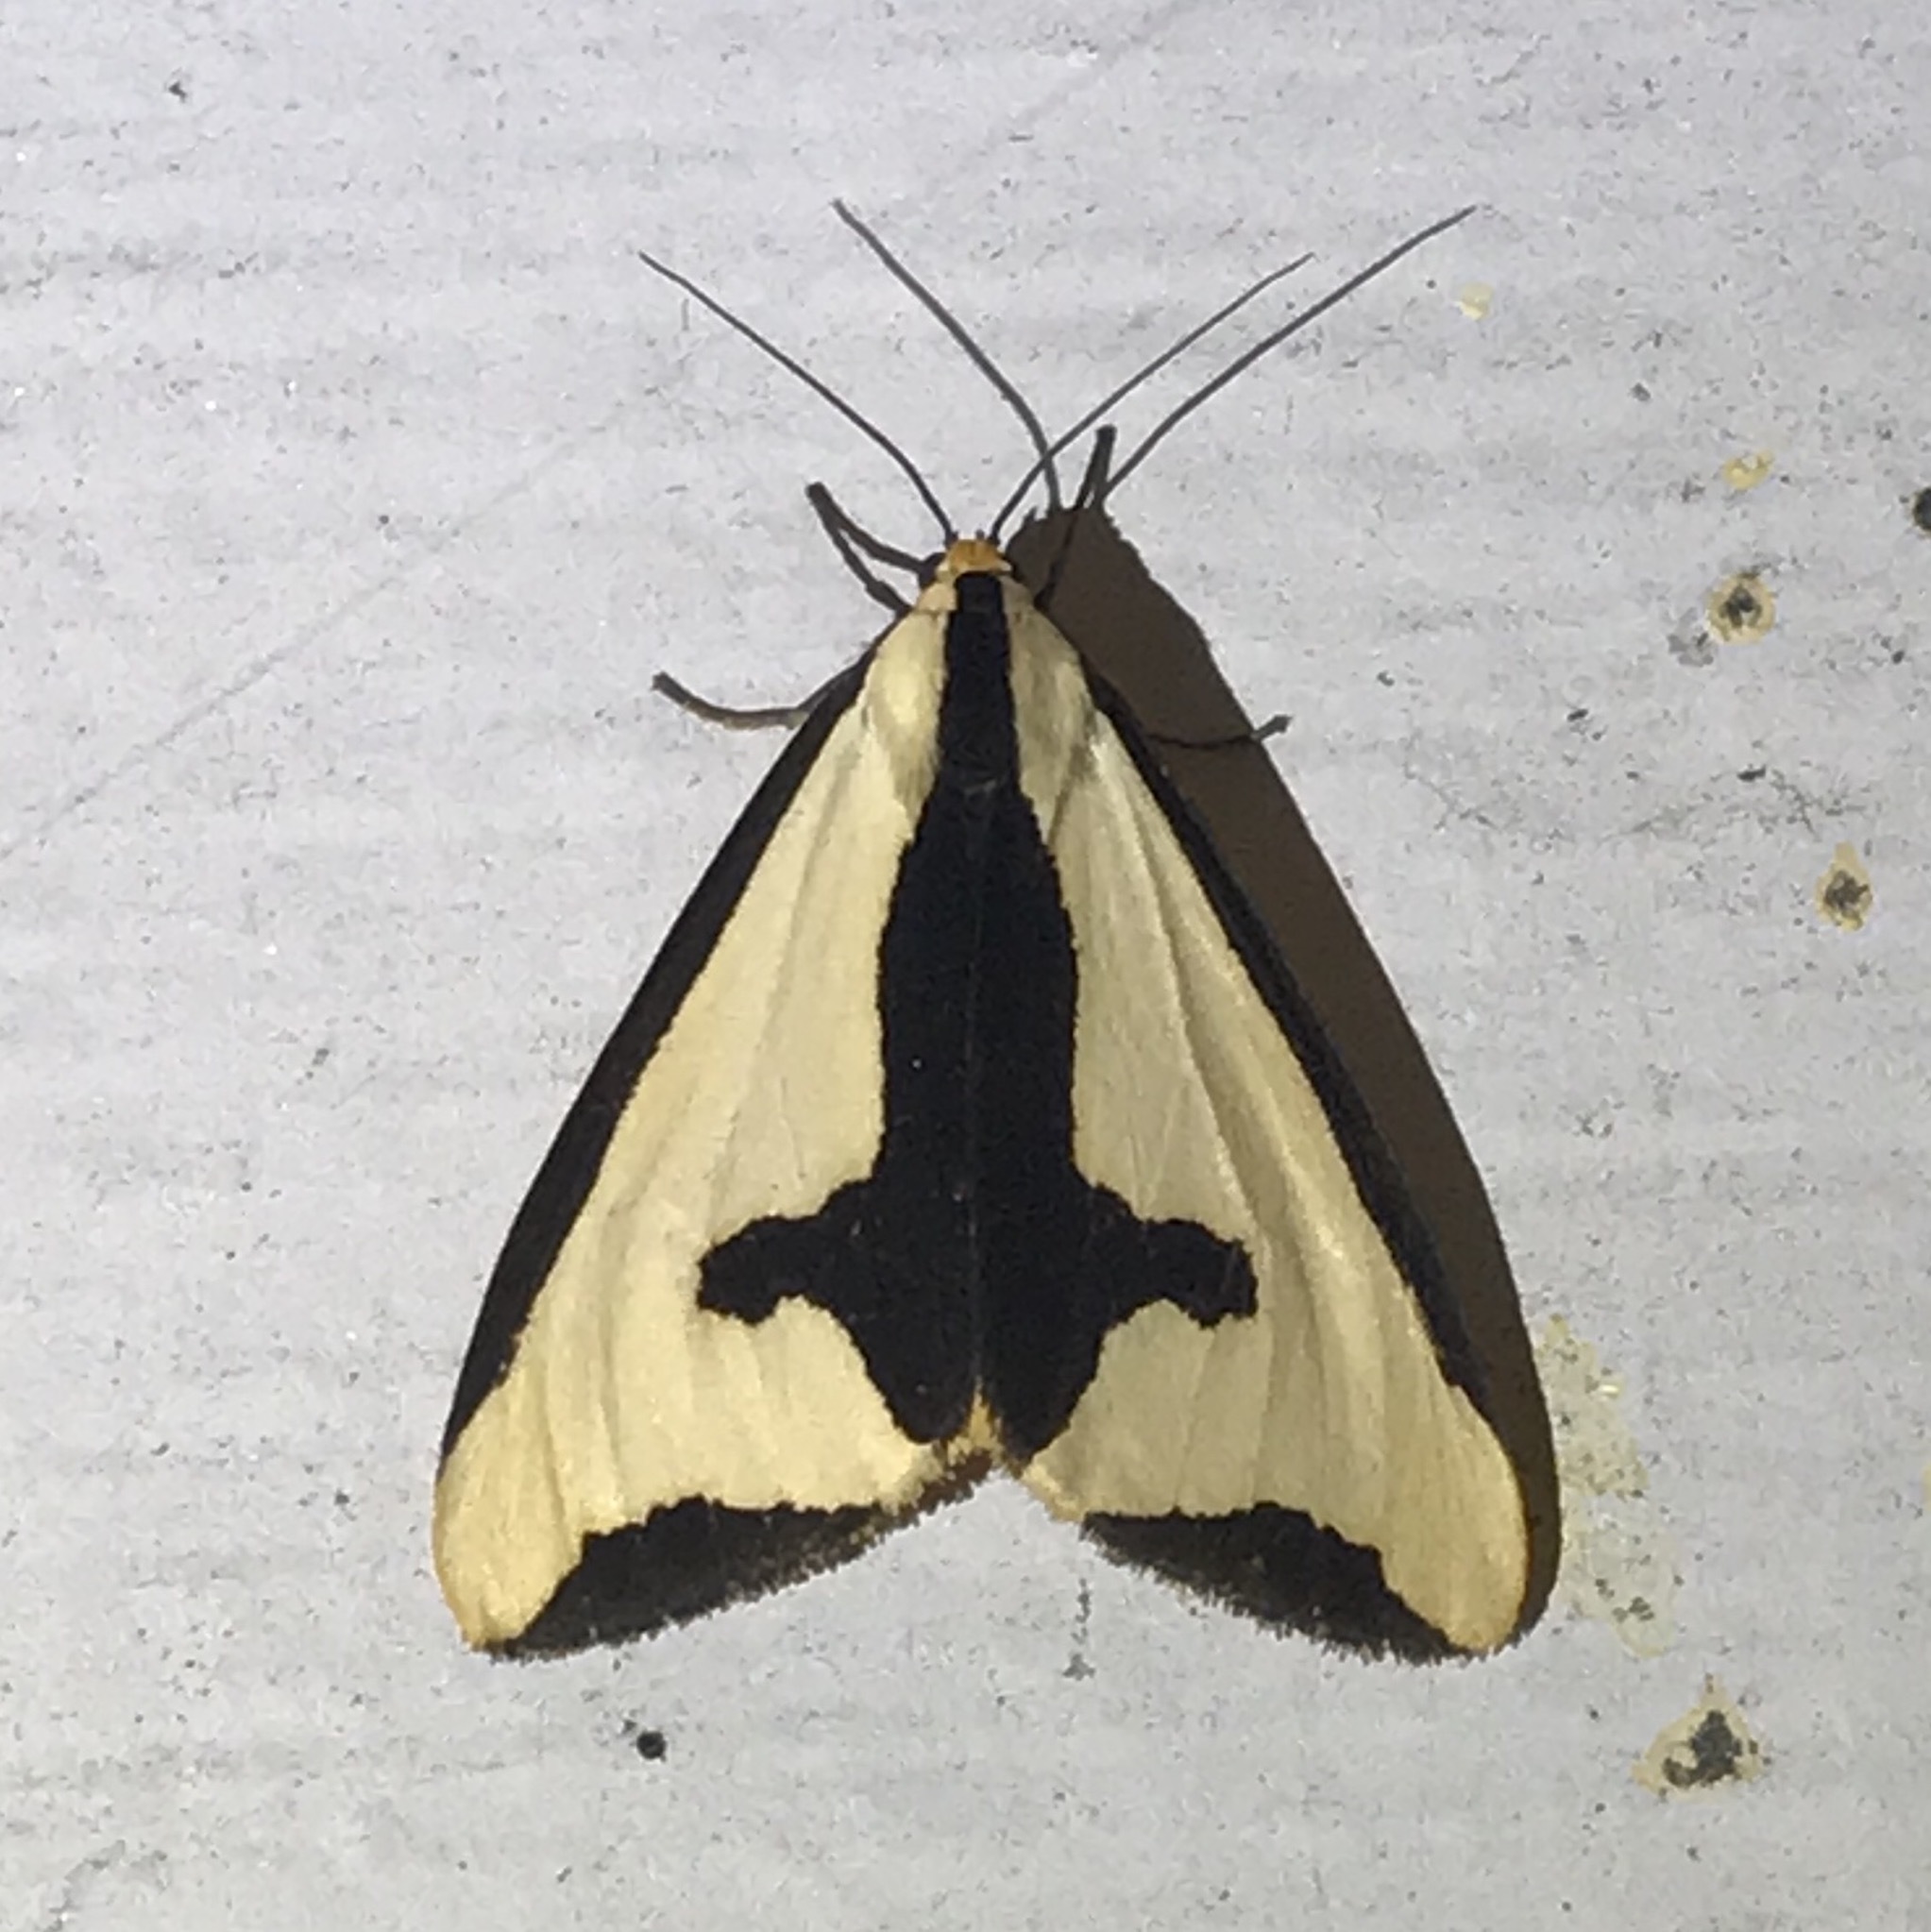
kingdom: Animalia
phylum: Arthropoda
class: Insecta
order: Lepidoptera
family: Erebidae
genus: Haploa
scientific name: Haploa clymene
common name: Clymene moth
